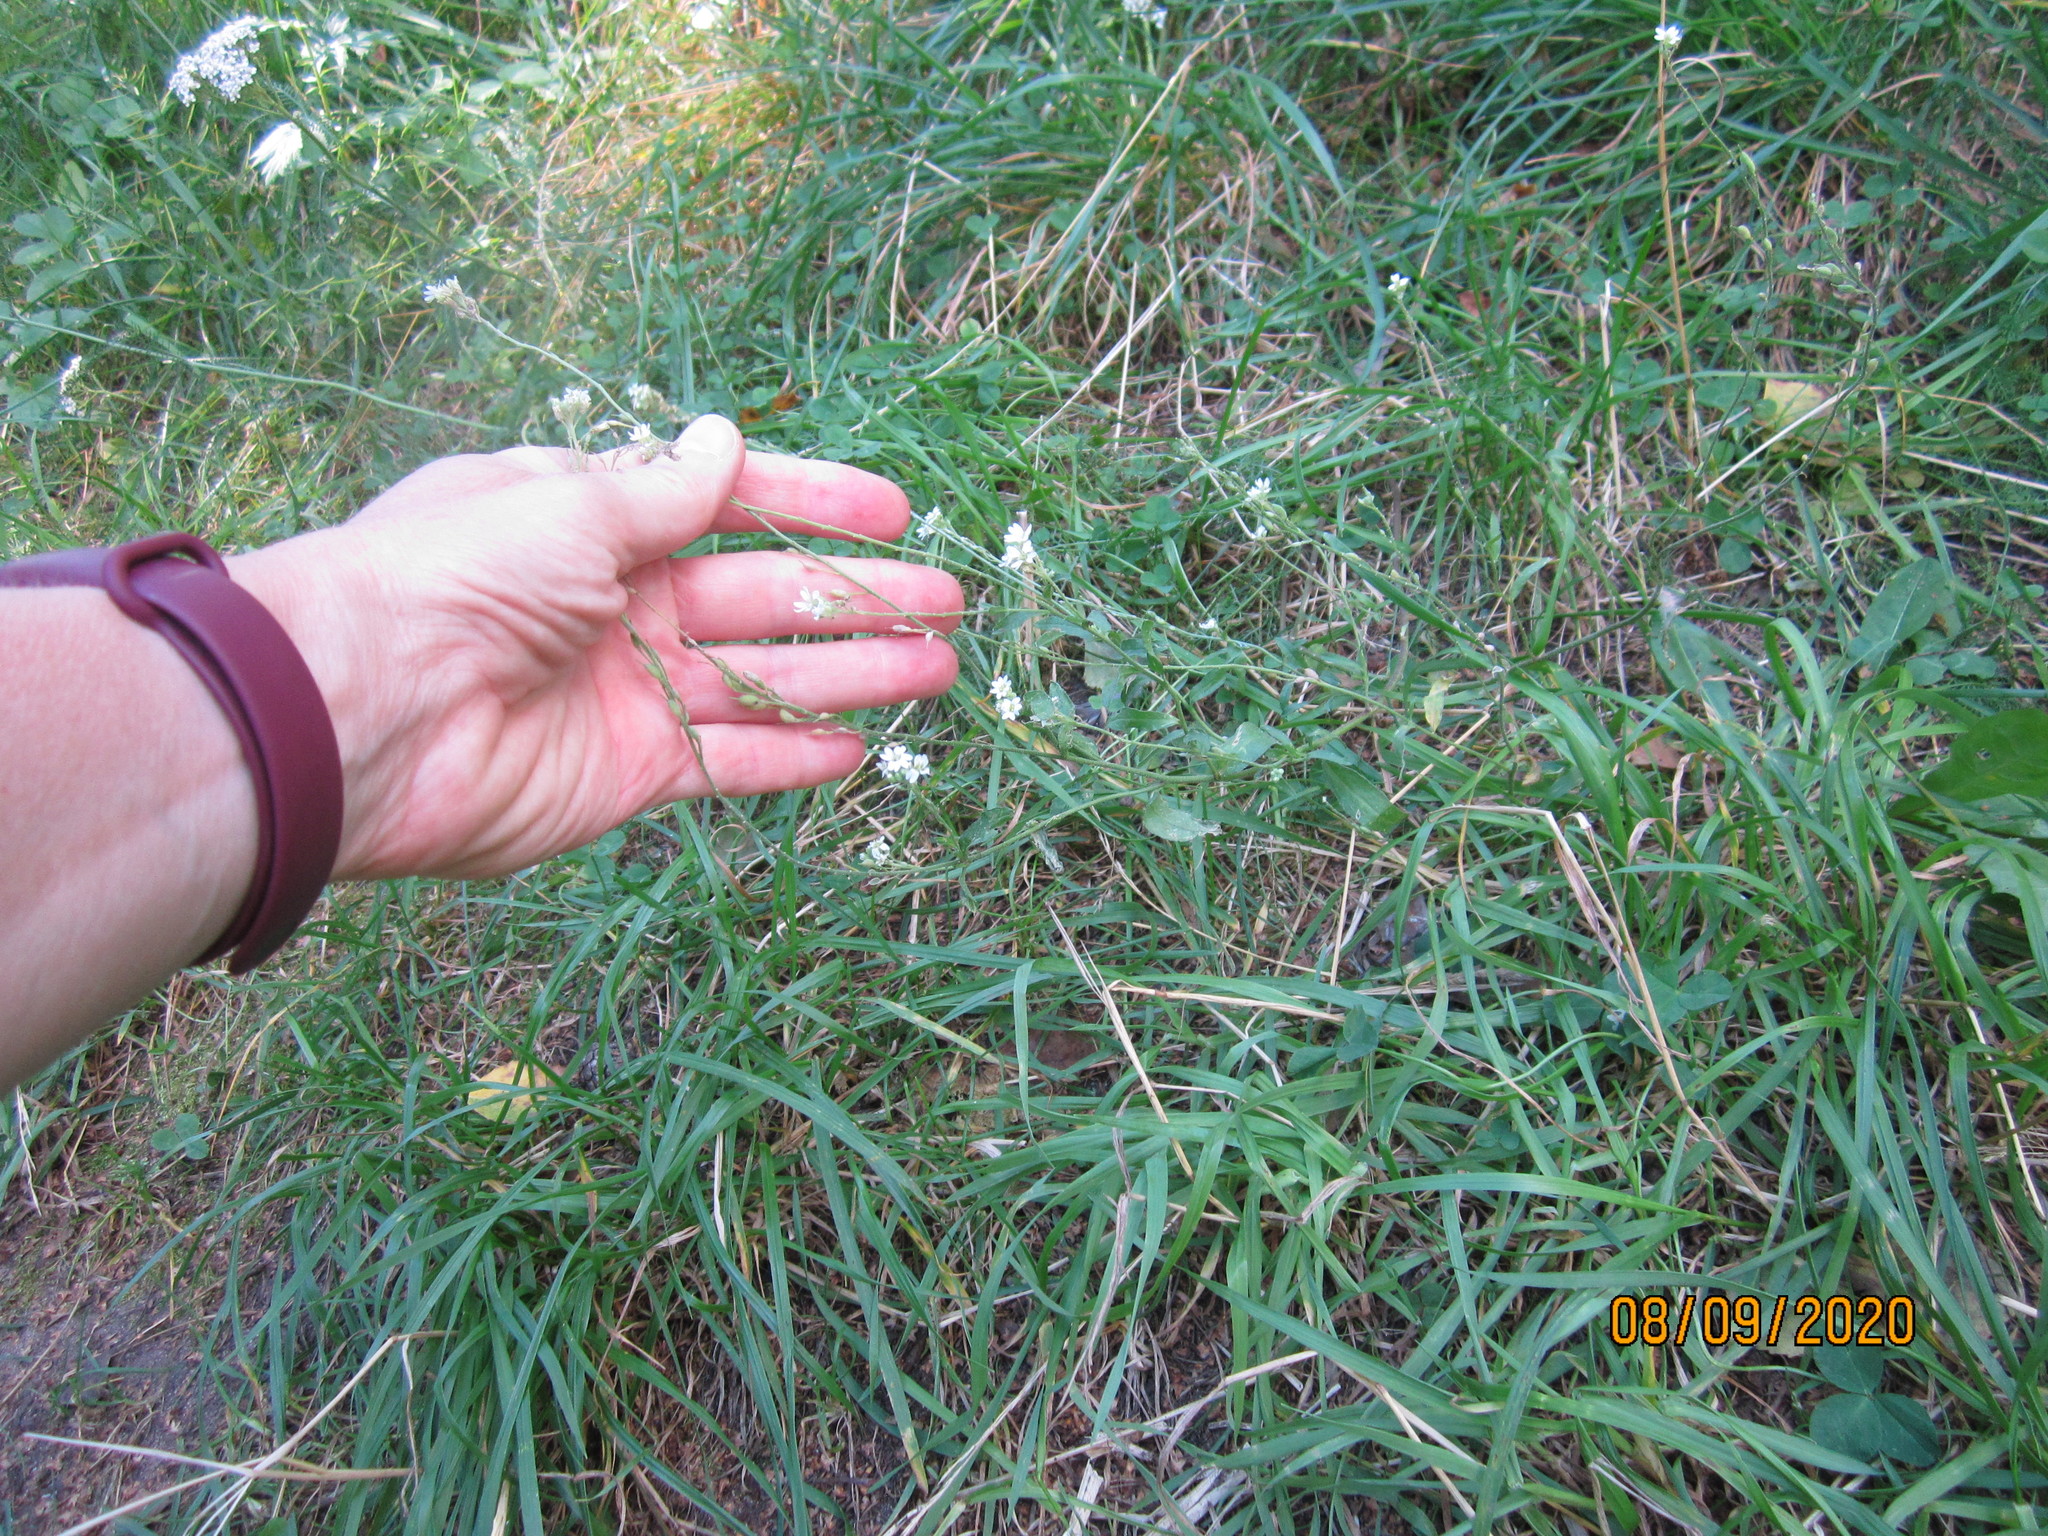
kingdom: Plantae
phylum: Tracheophyta
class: Magnoliopsida
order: Brassicales
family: Brassicaceae
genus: Berteroa
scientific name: Berteroa incana
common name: Hoary alison
